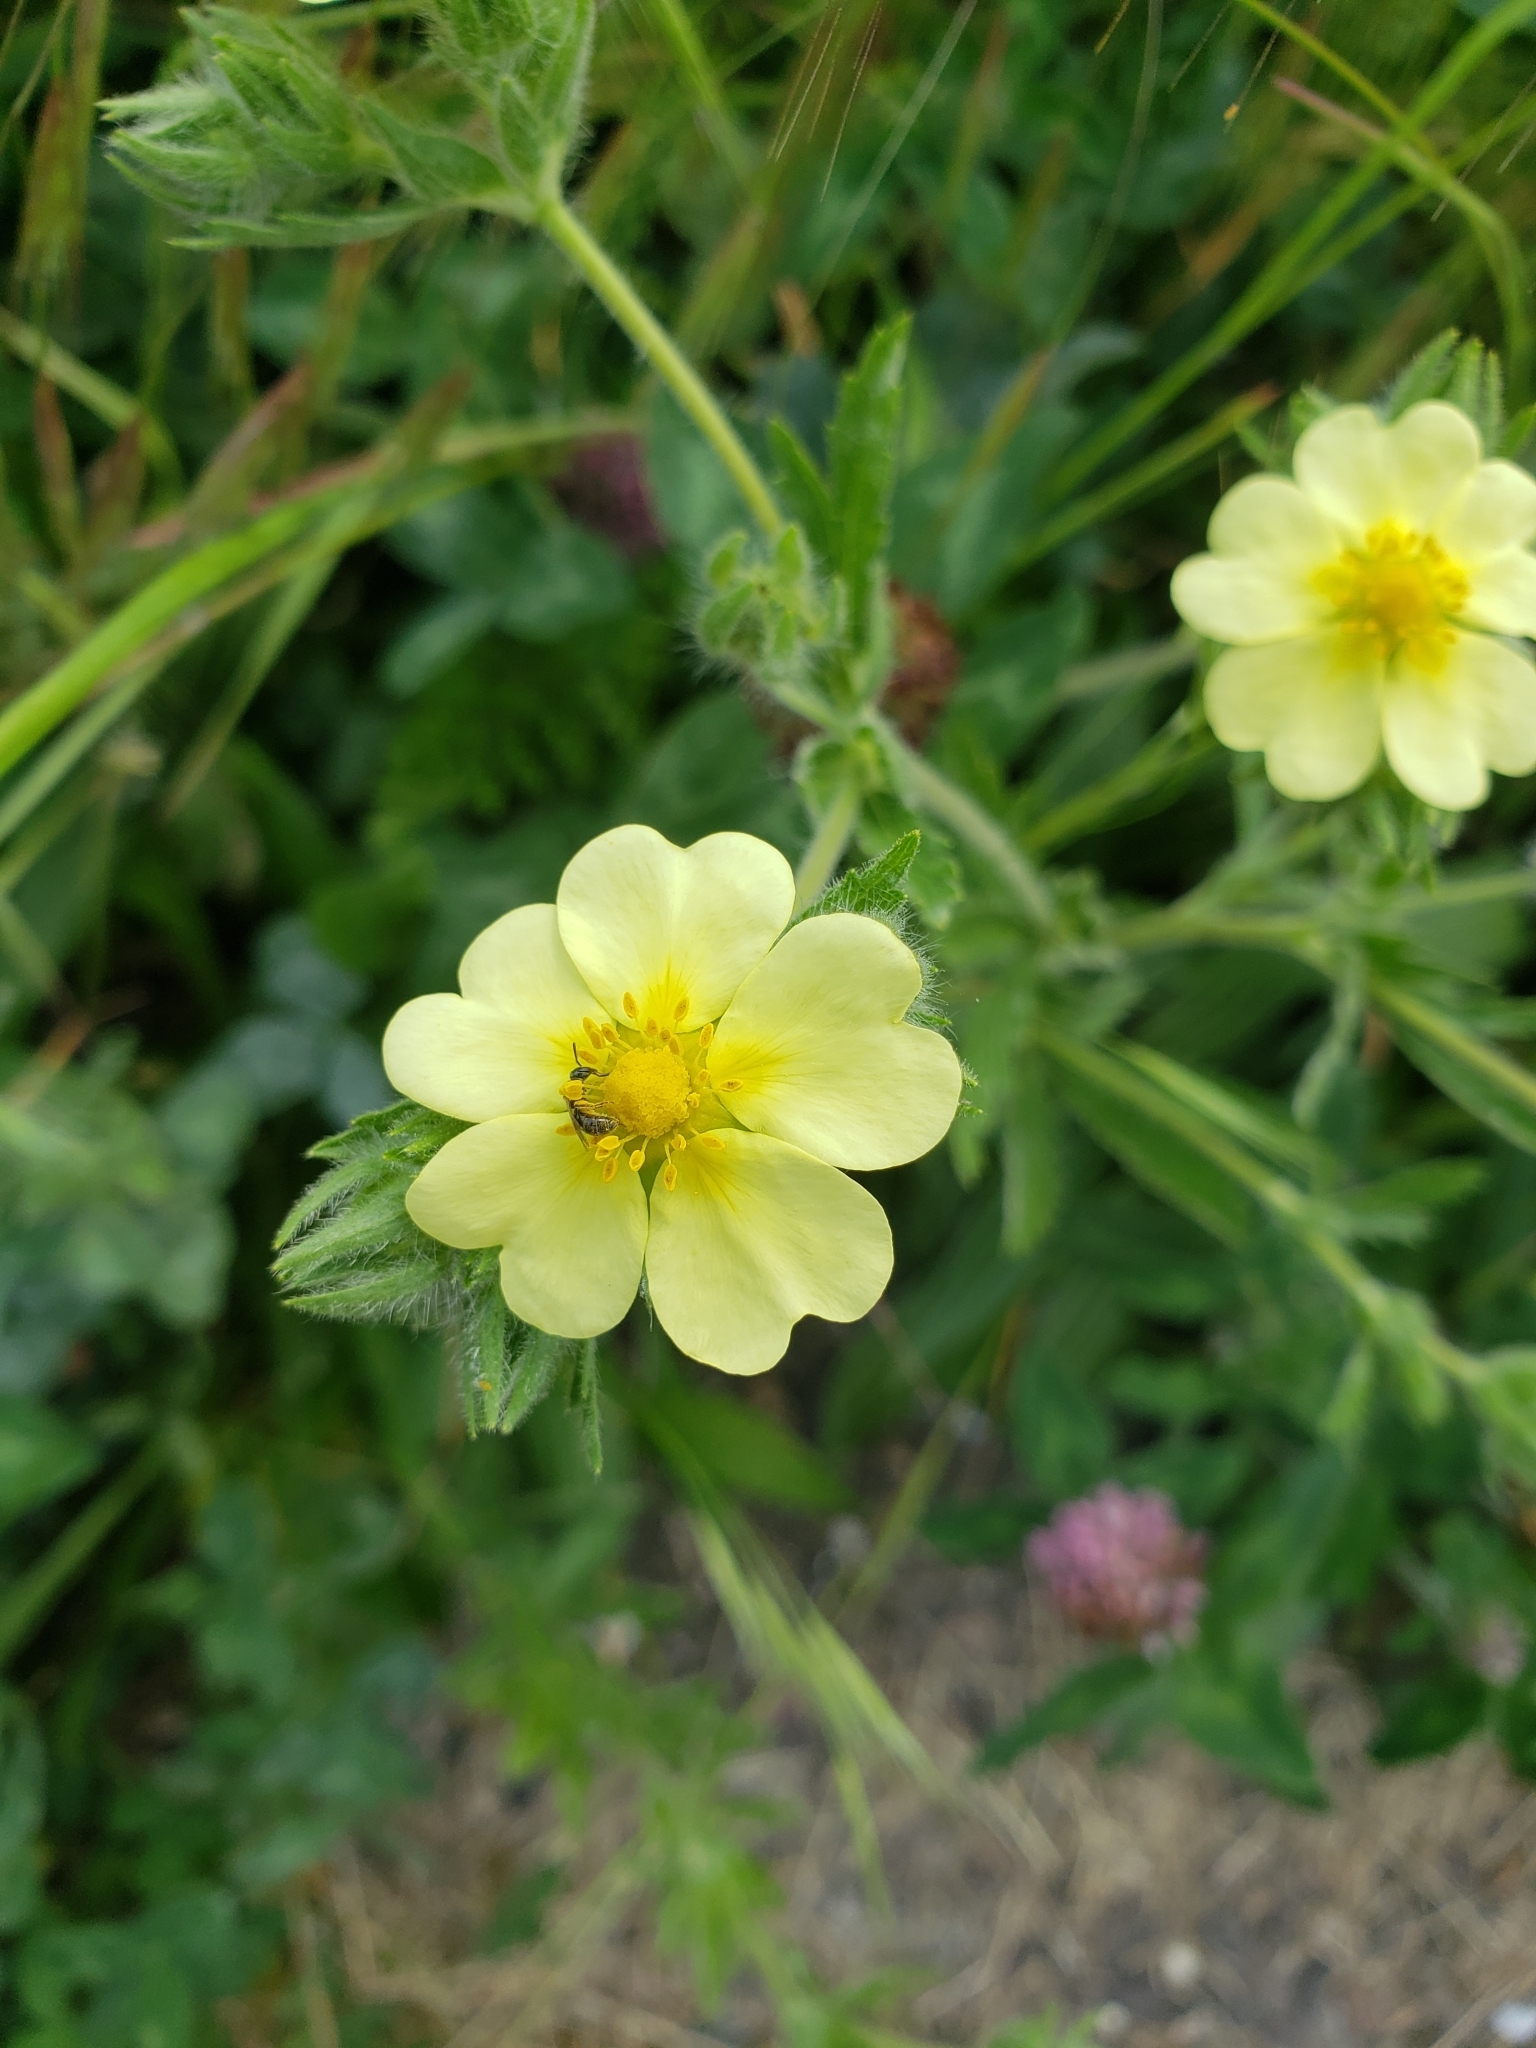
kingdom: Plantae
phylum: Tracheophyta
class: Magnoliopsida
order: Rosales
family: Rosaceae
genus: Potentilla
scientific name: Potentilla recta
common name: Sulphur cinquefoil
